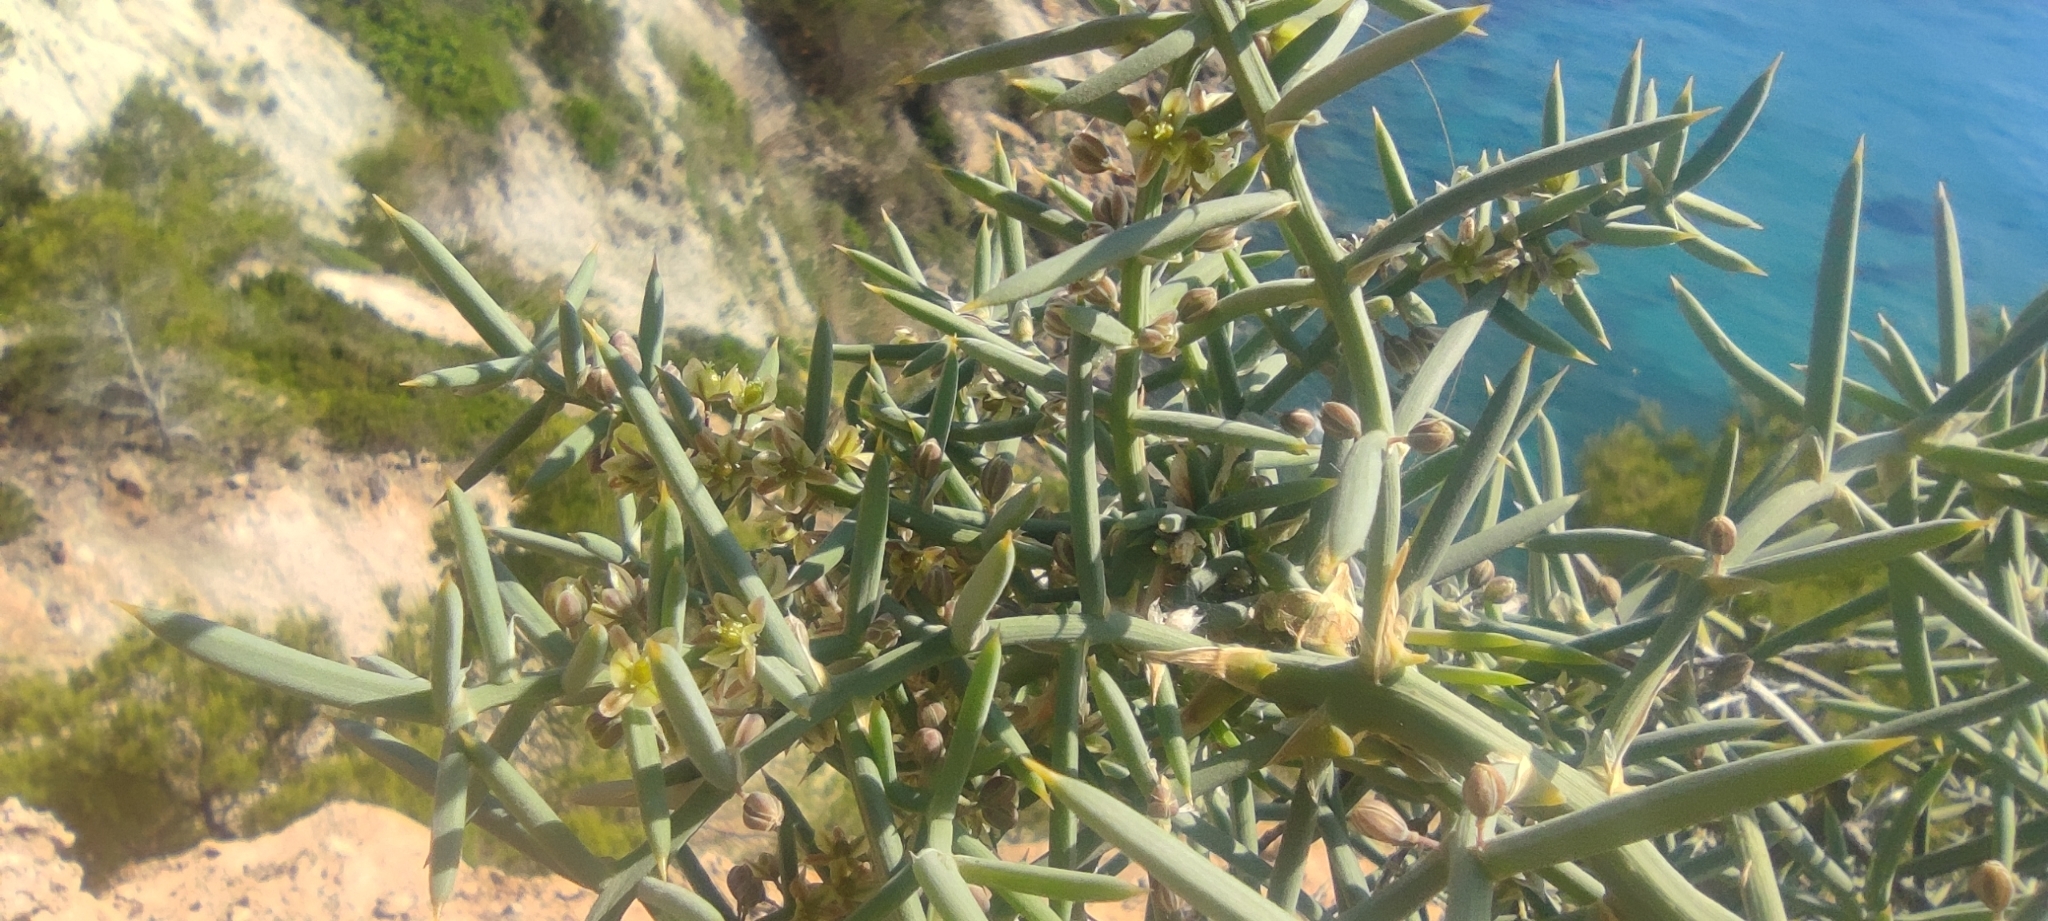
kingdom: Plantae
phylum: Tracheophyta
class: Liliopsida
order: Asparagales
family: Asparagaceae
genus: Asparagus
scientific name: Asparagus horridus
